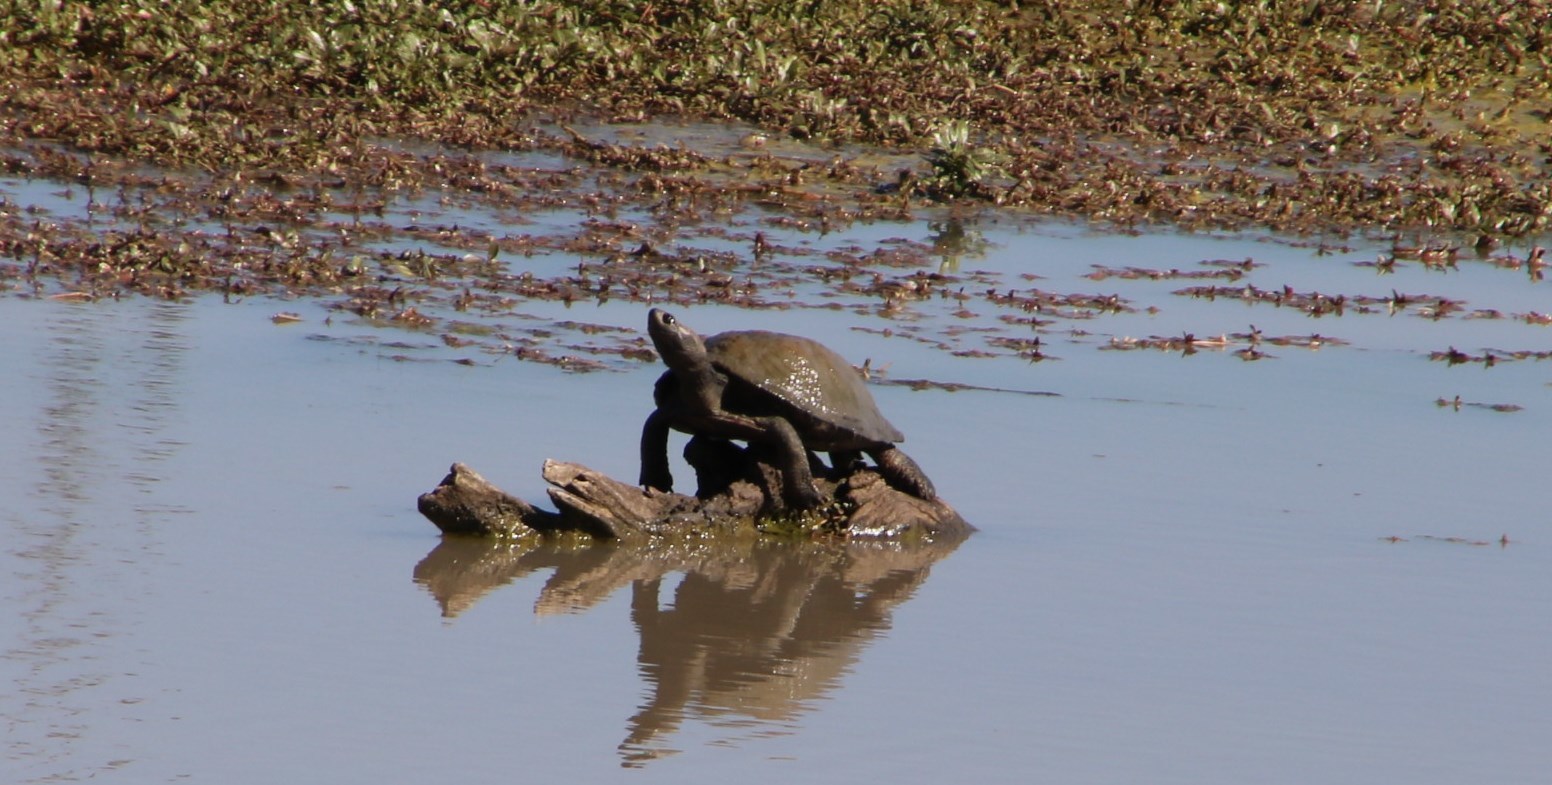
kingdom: Animalia
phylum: Chordata
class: Testudines
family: Pelomedusidae
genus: Pelusios
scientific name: Pelusios sinuatus
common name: Serrated hinged terrapin
